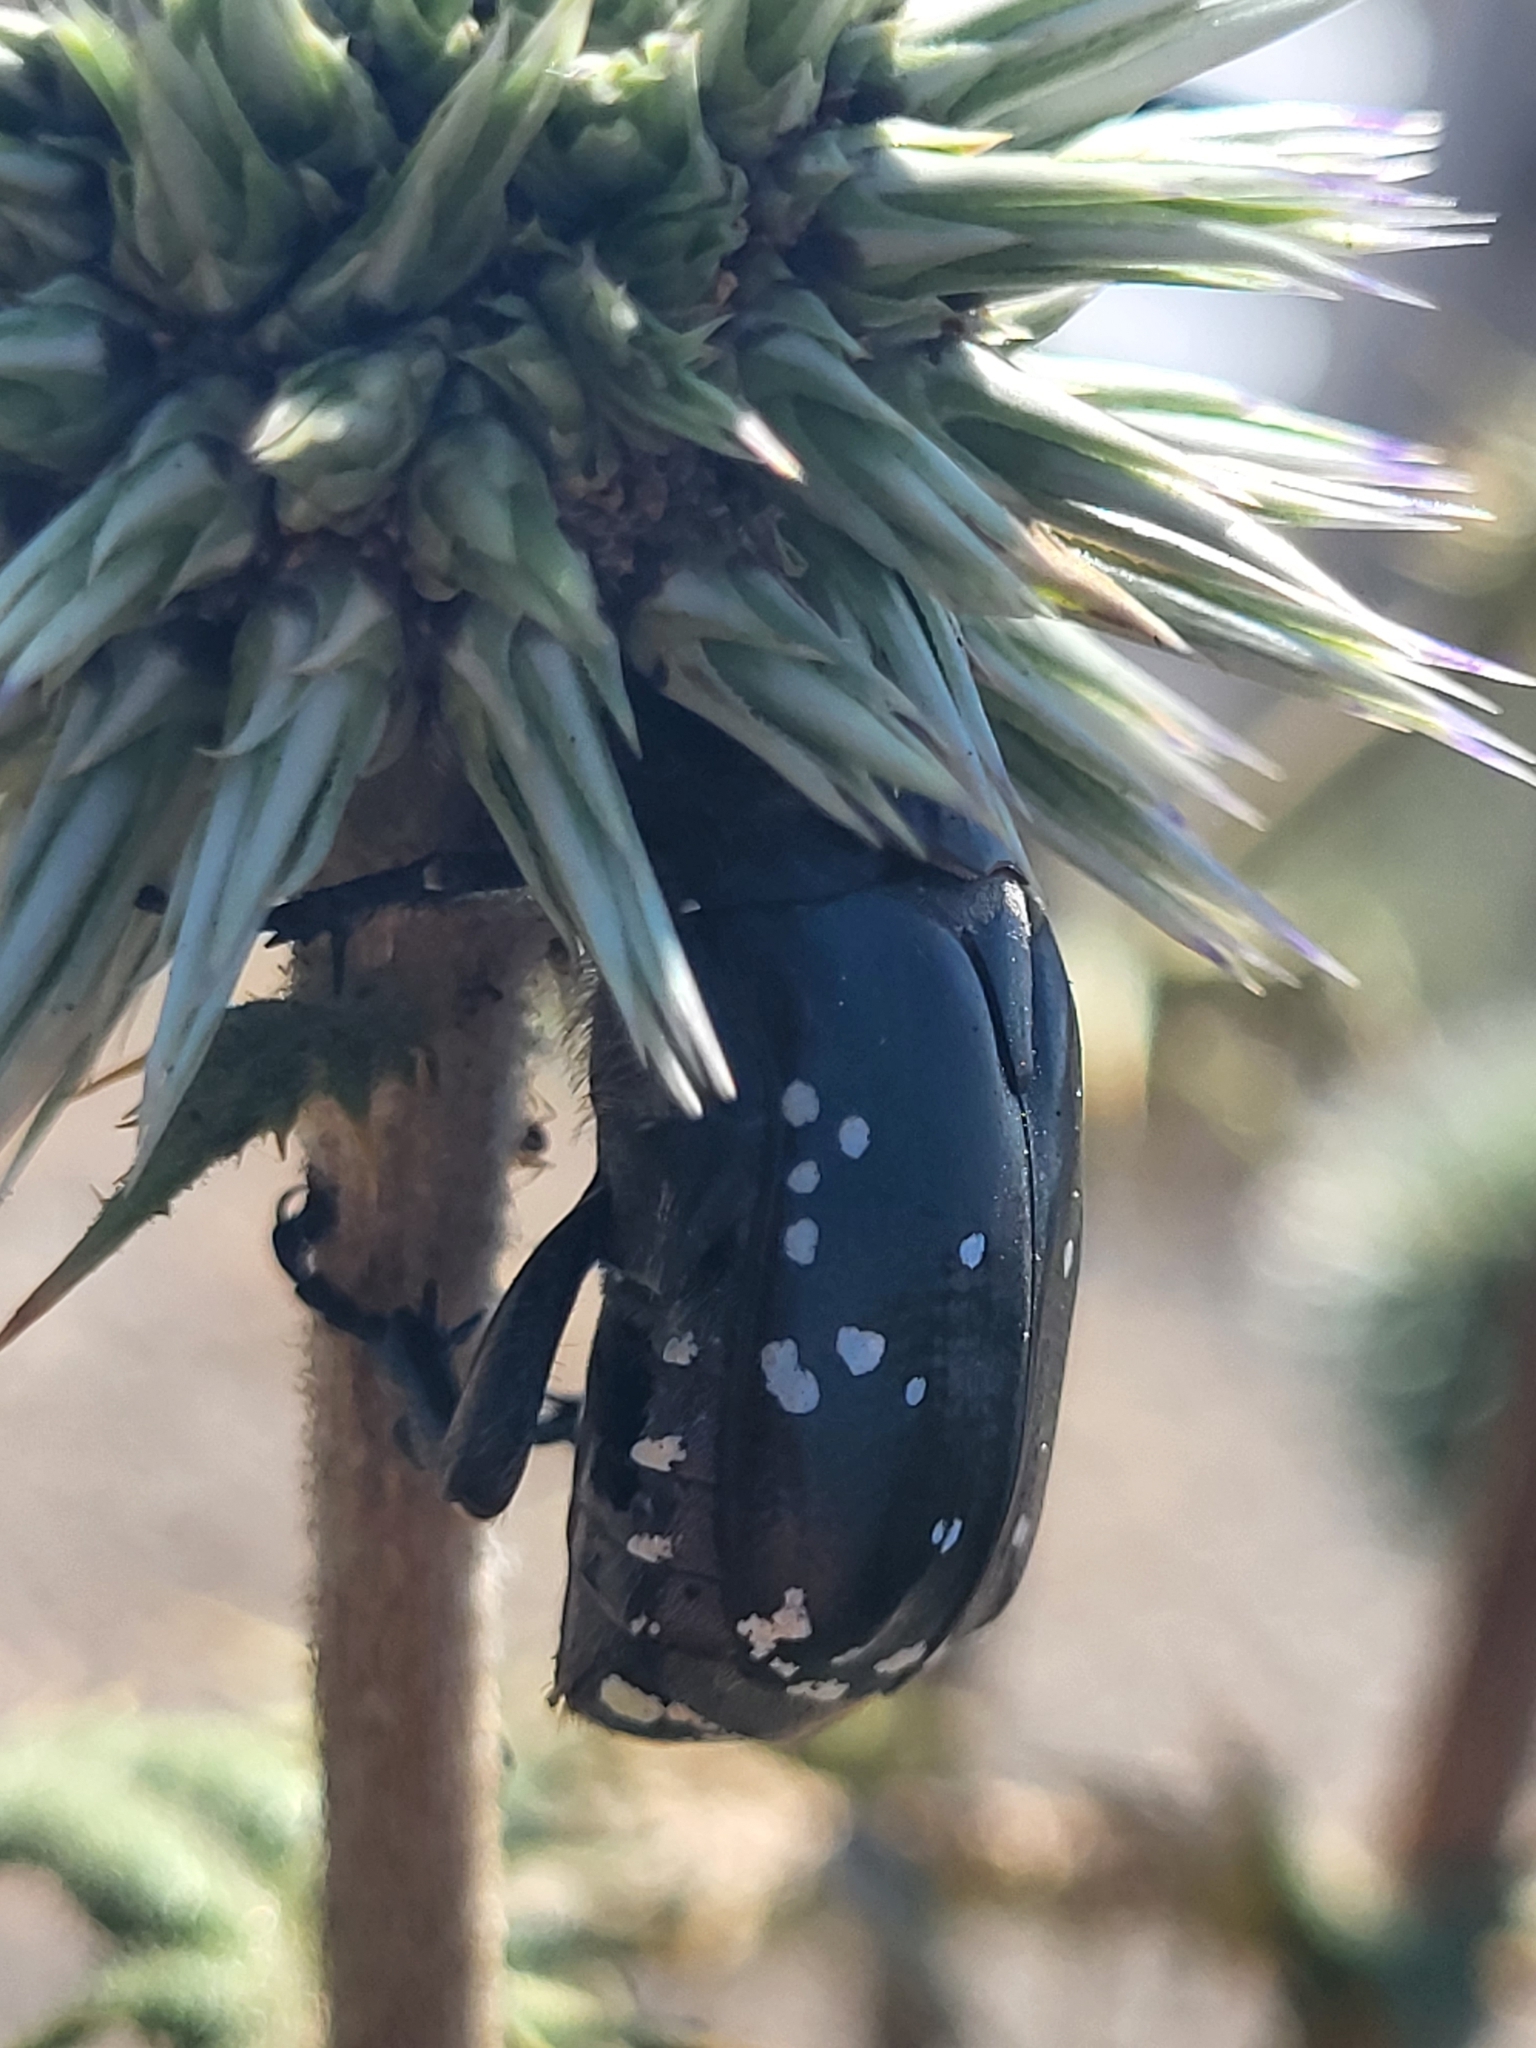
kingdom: Animalia
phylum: Arthropoda
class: Insecta
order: Coleoptera
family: Scarabaeidae
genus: Protaetia
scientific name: Protaetia funebris
